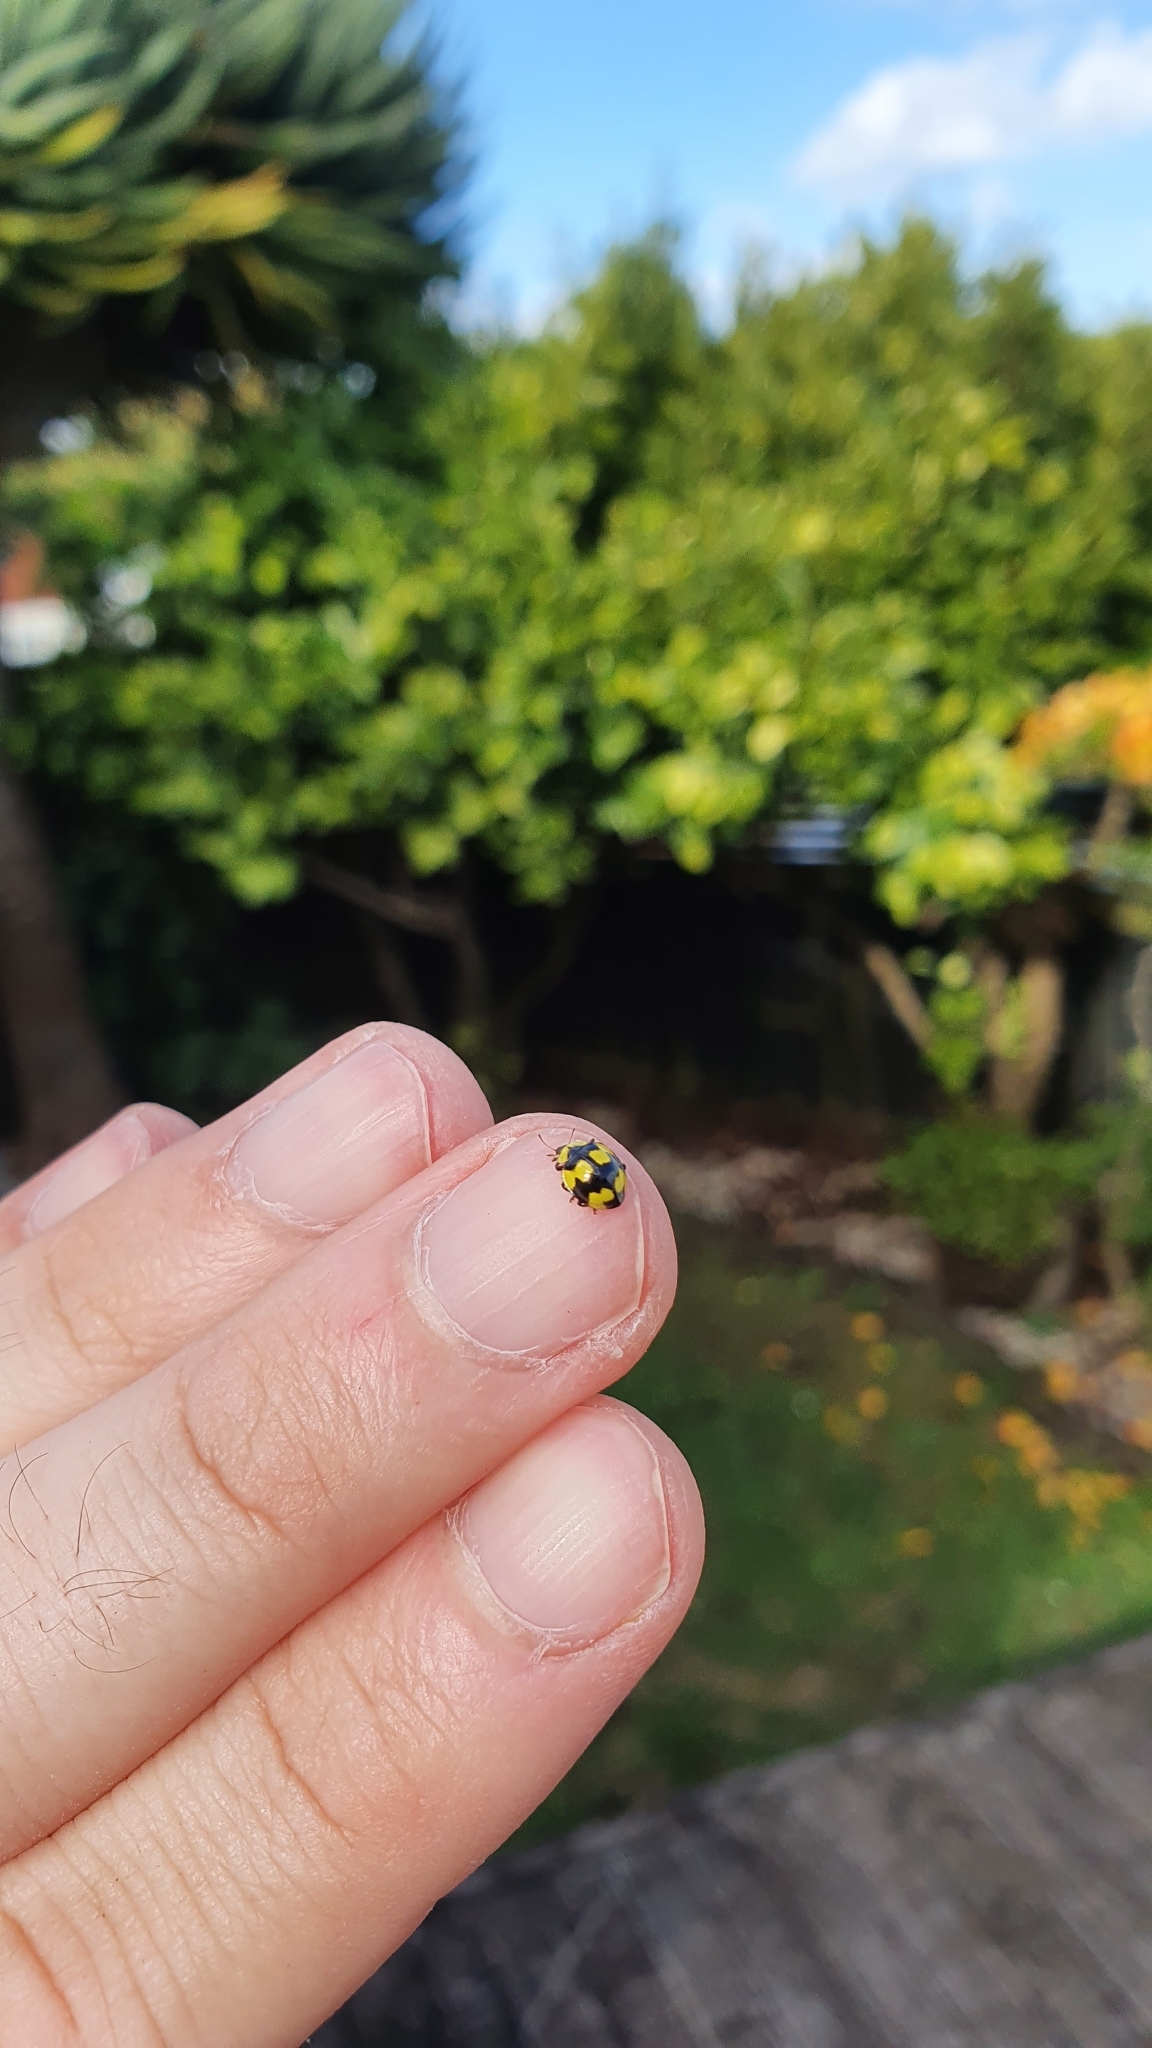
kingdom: Animalia
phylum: Arthropoda
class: Insecta
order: Coleoptera
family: Coccinellidae
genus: Illeis
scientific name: Illeis galbula
